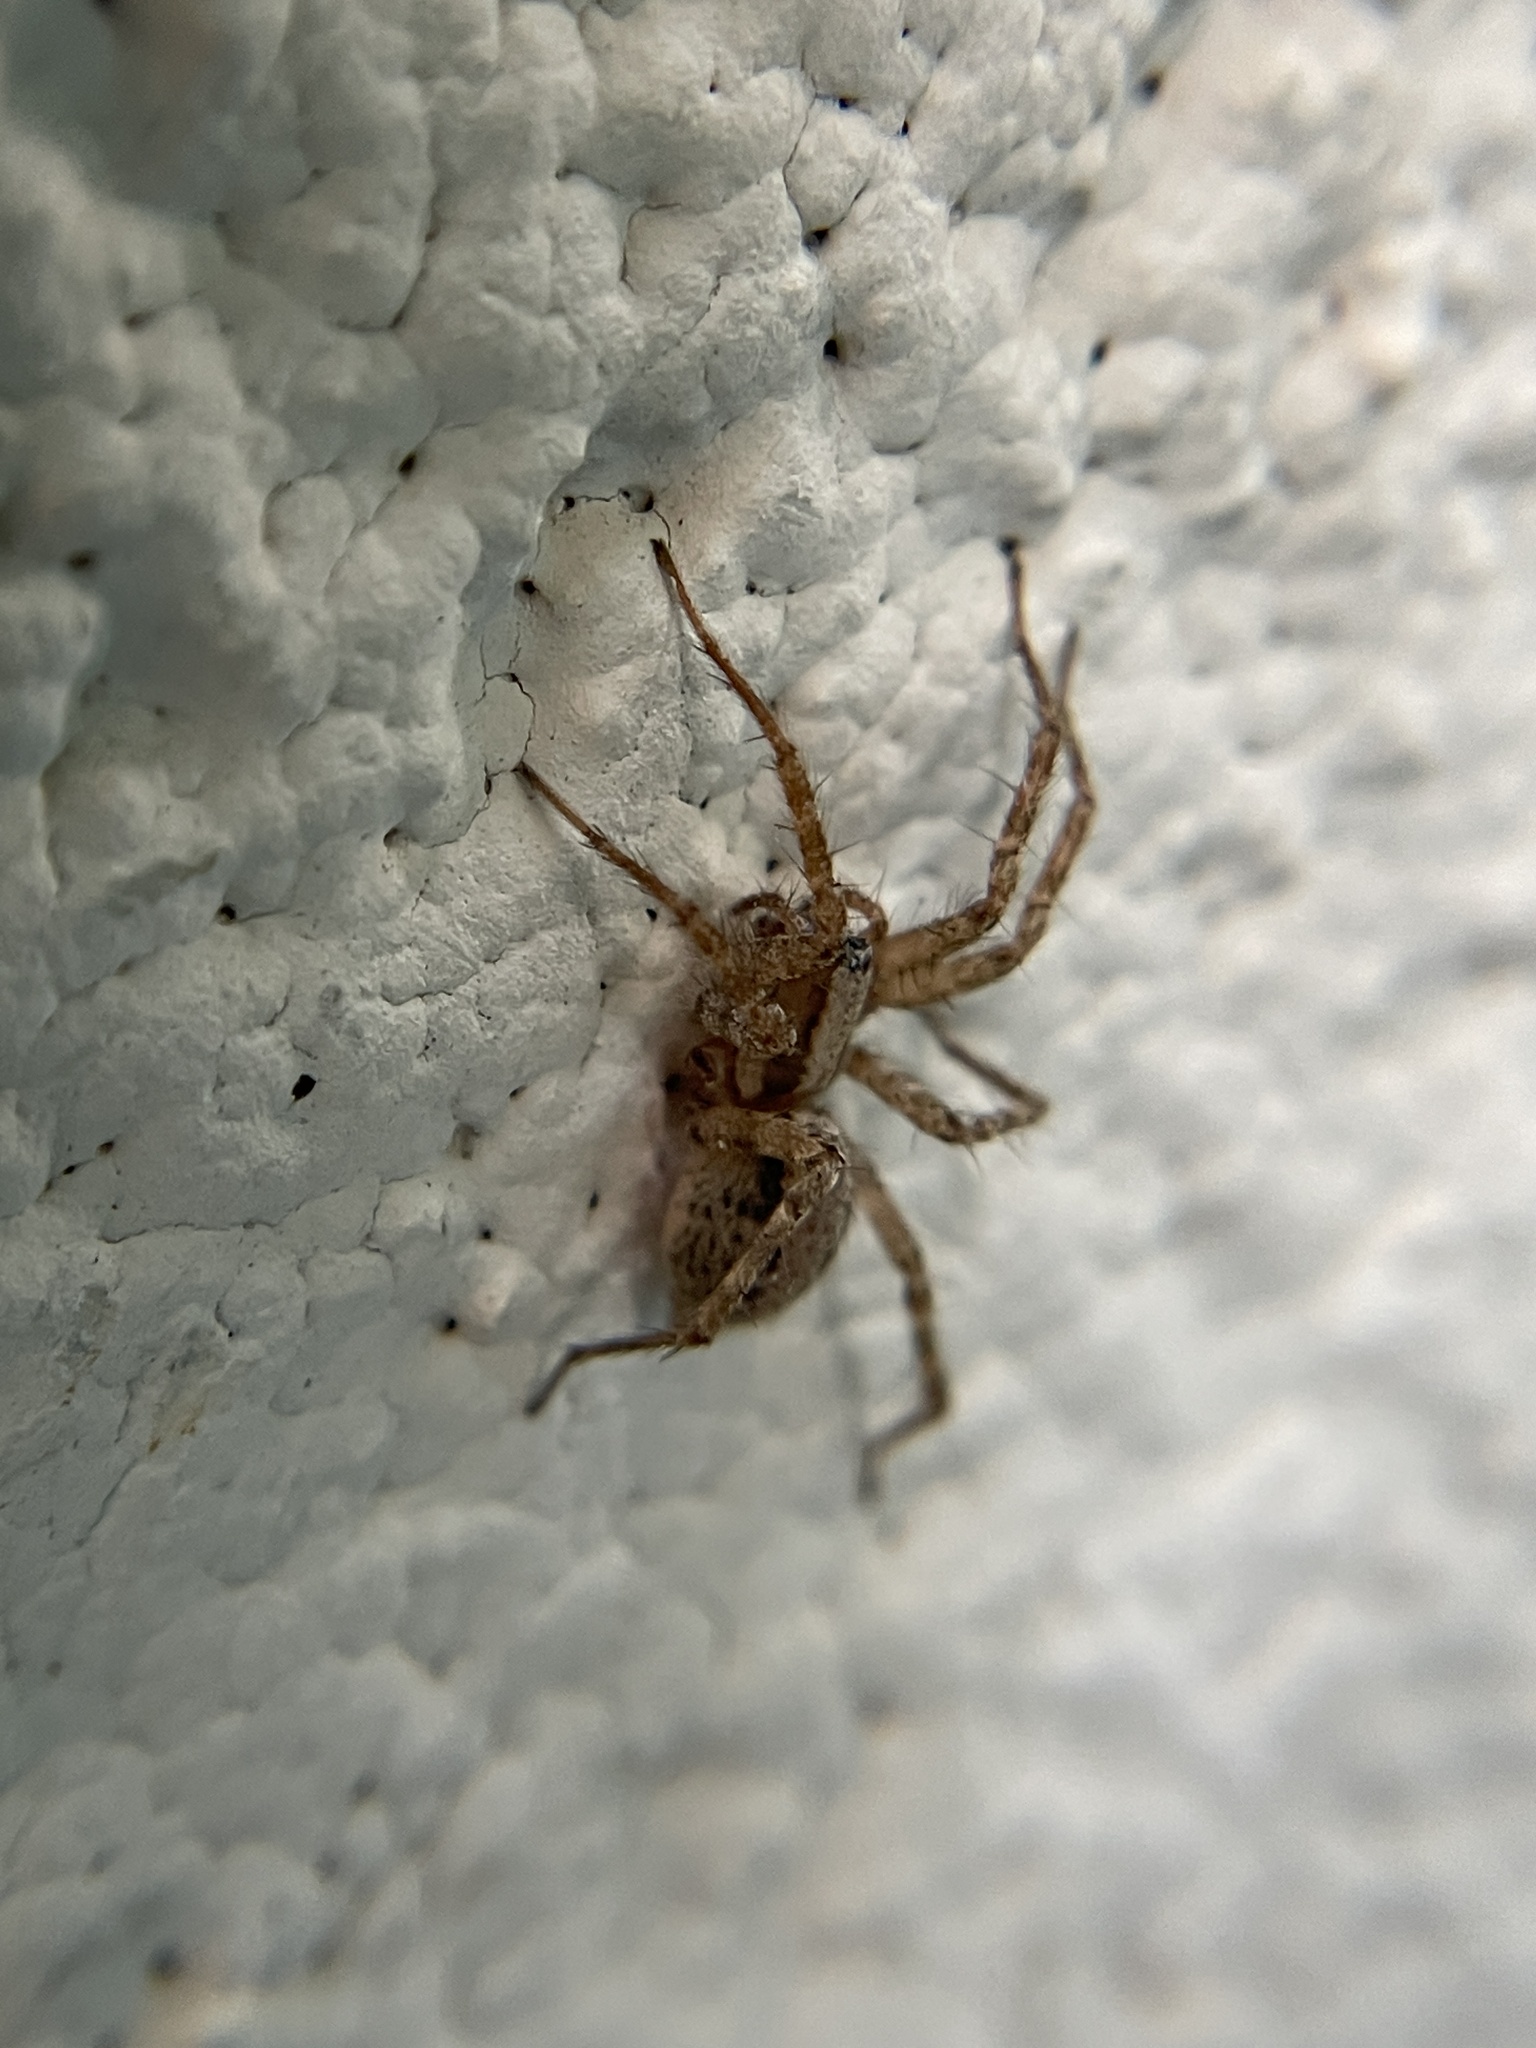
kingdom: Animalia
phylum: Arthropoda
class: Arachnida
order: Araneae
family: Agelenidae
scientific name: Agelenidae
